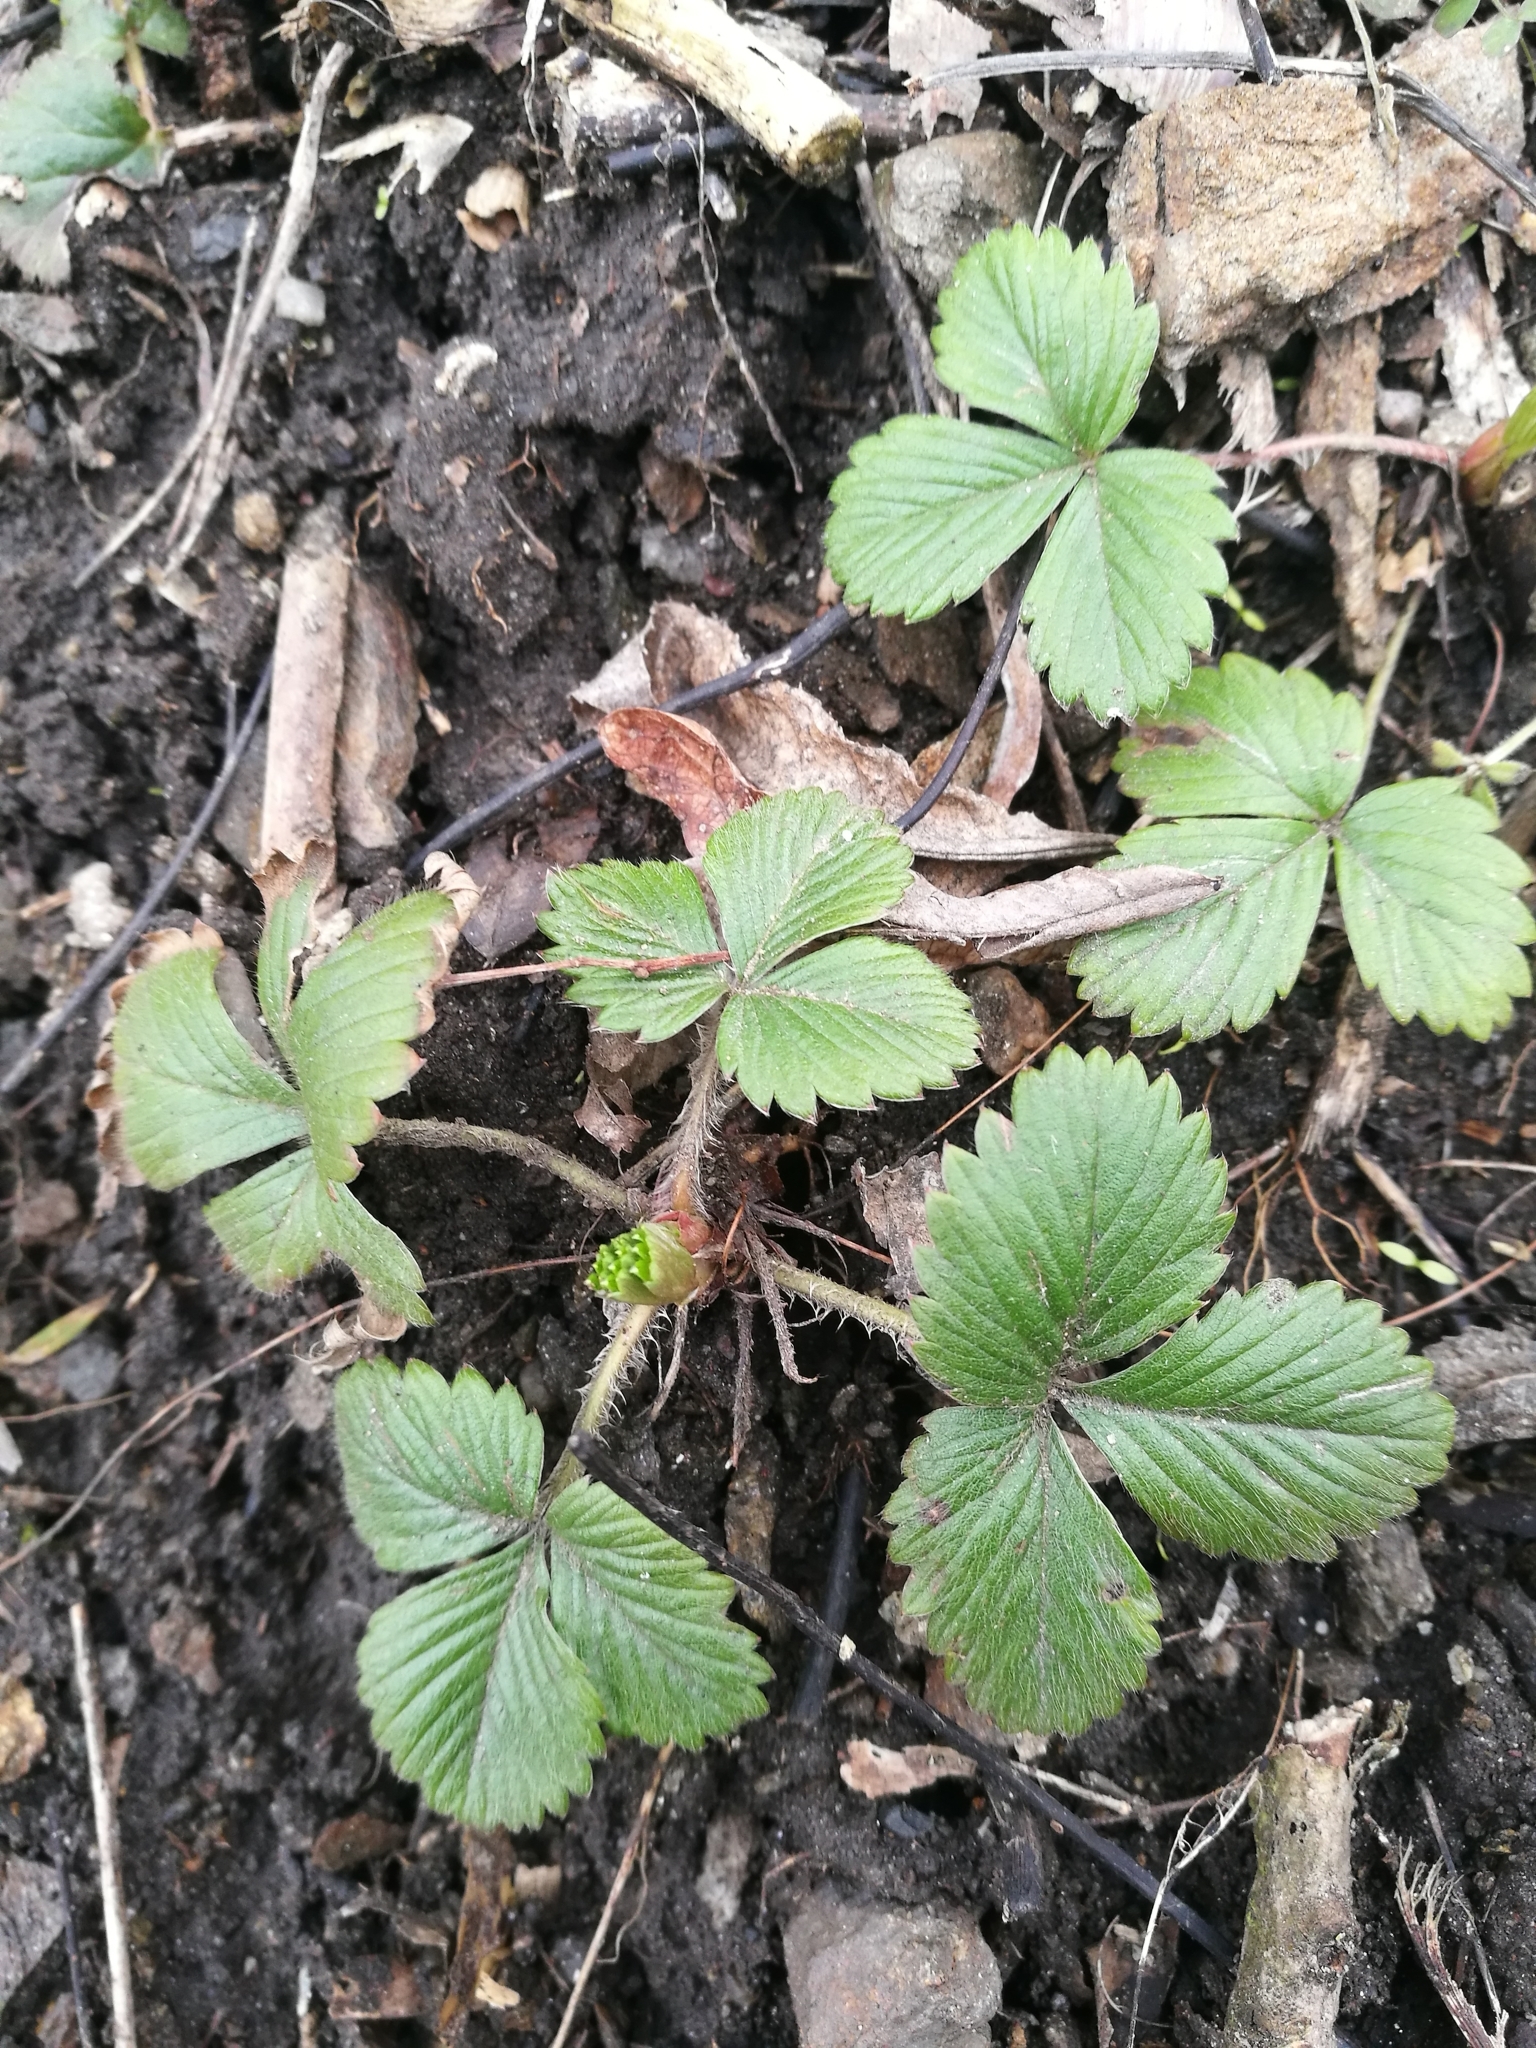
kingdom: Plantae
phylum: Tracheophyta
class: Magnoliopsida
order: Rosales
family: Rosaceae
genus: Fragaria
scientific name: Fragaria vesca
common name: Wild strawberry
